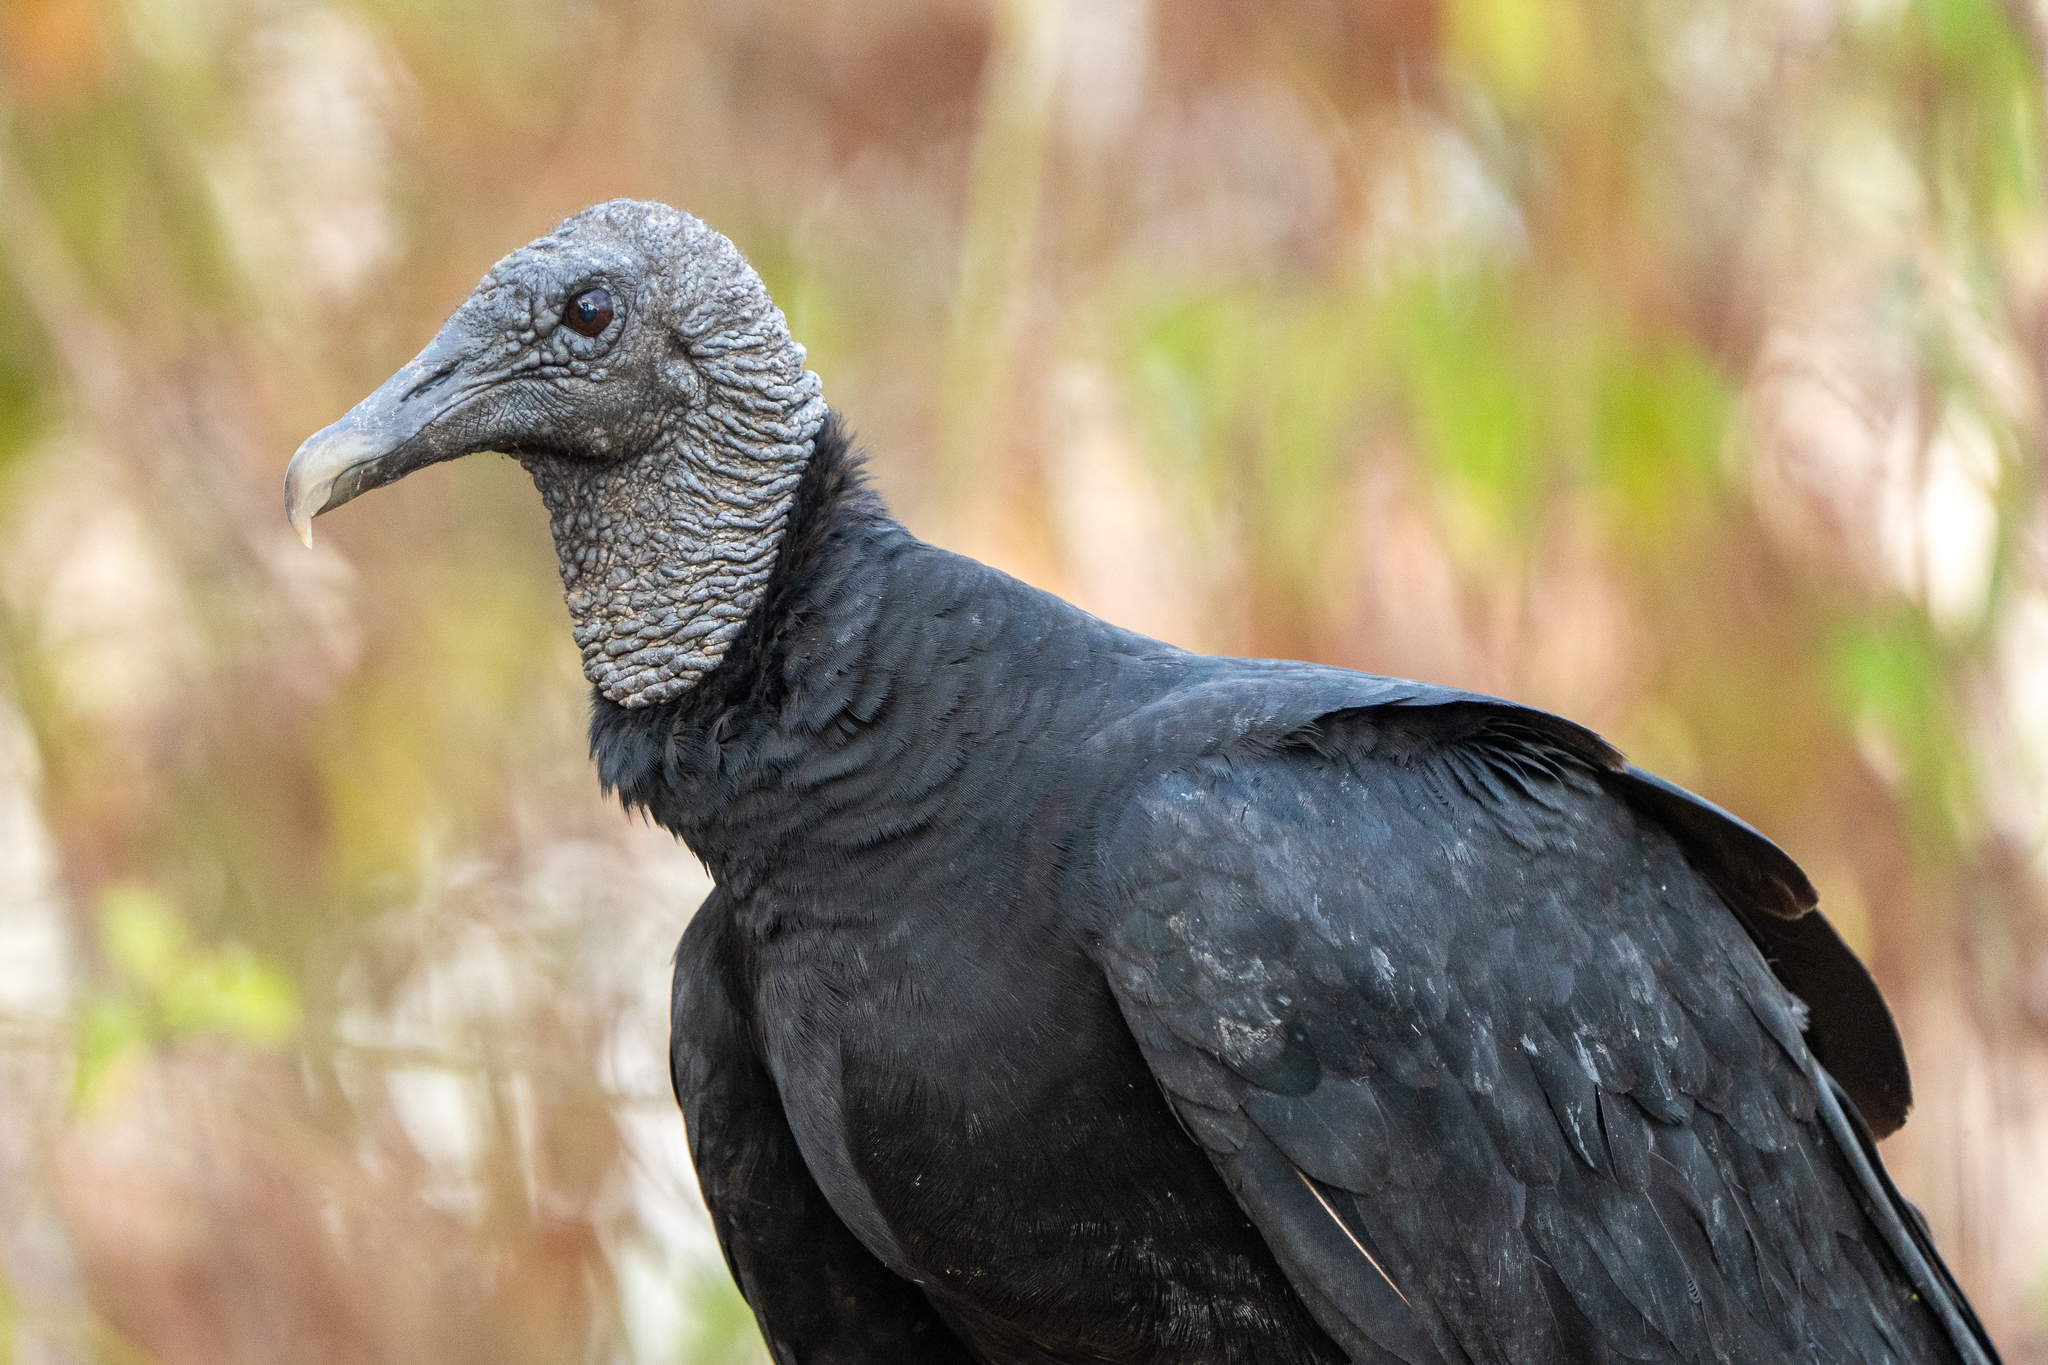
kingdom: Animalia
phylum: Chordata
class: Aves
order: Accipitriformes
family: Cathartidae
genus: Coragyps
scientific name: Coragyps atratus
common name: Black vulture
